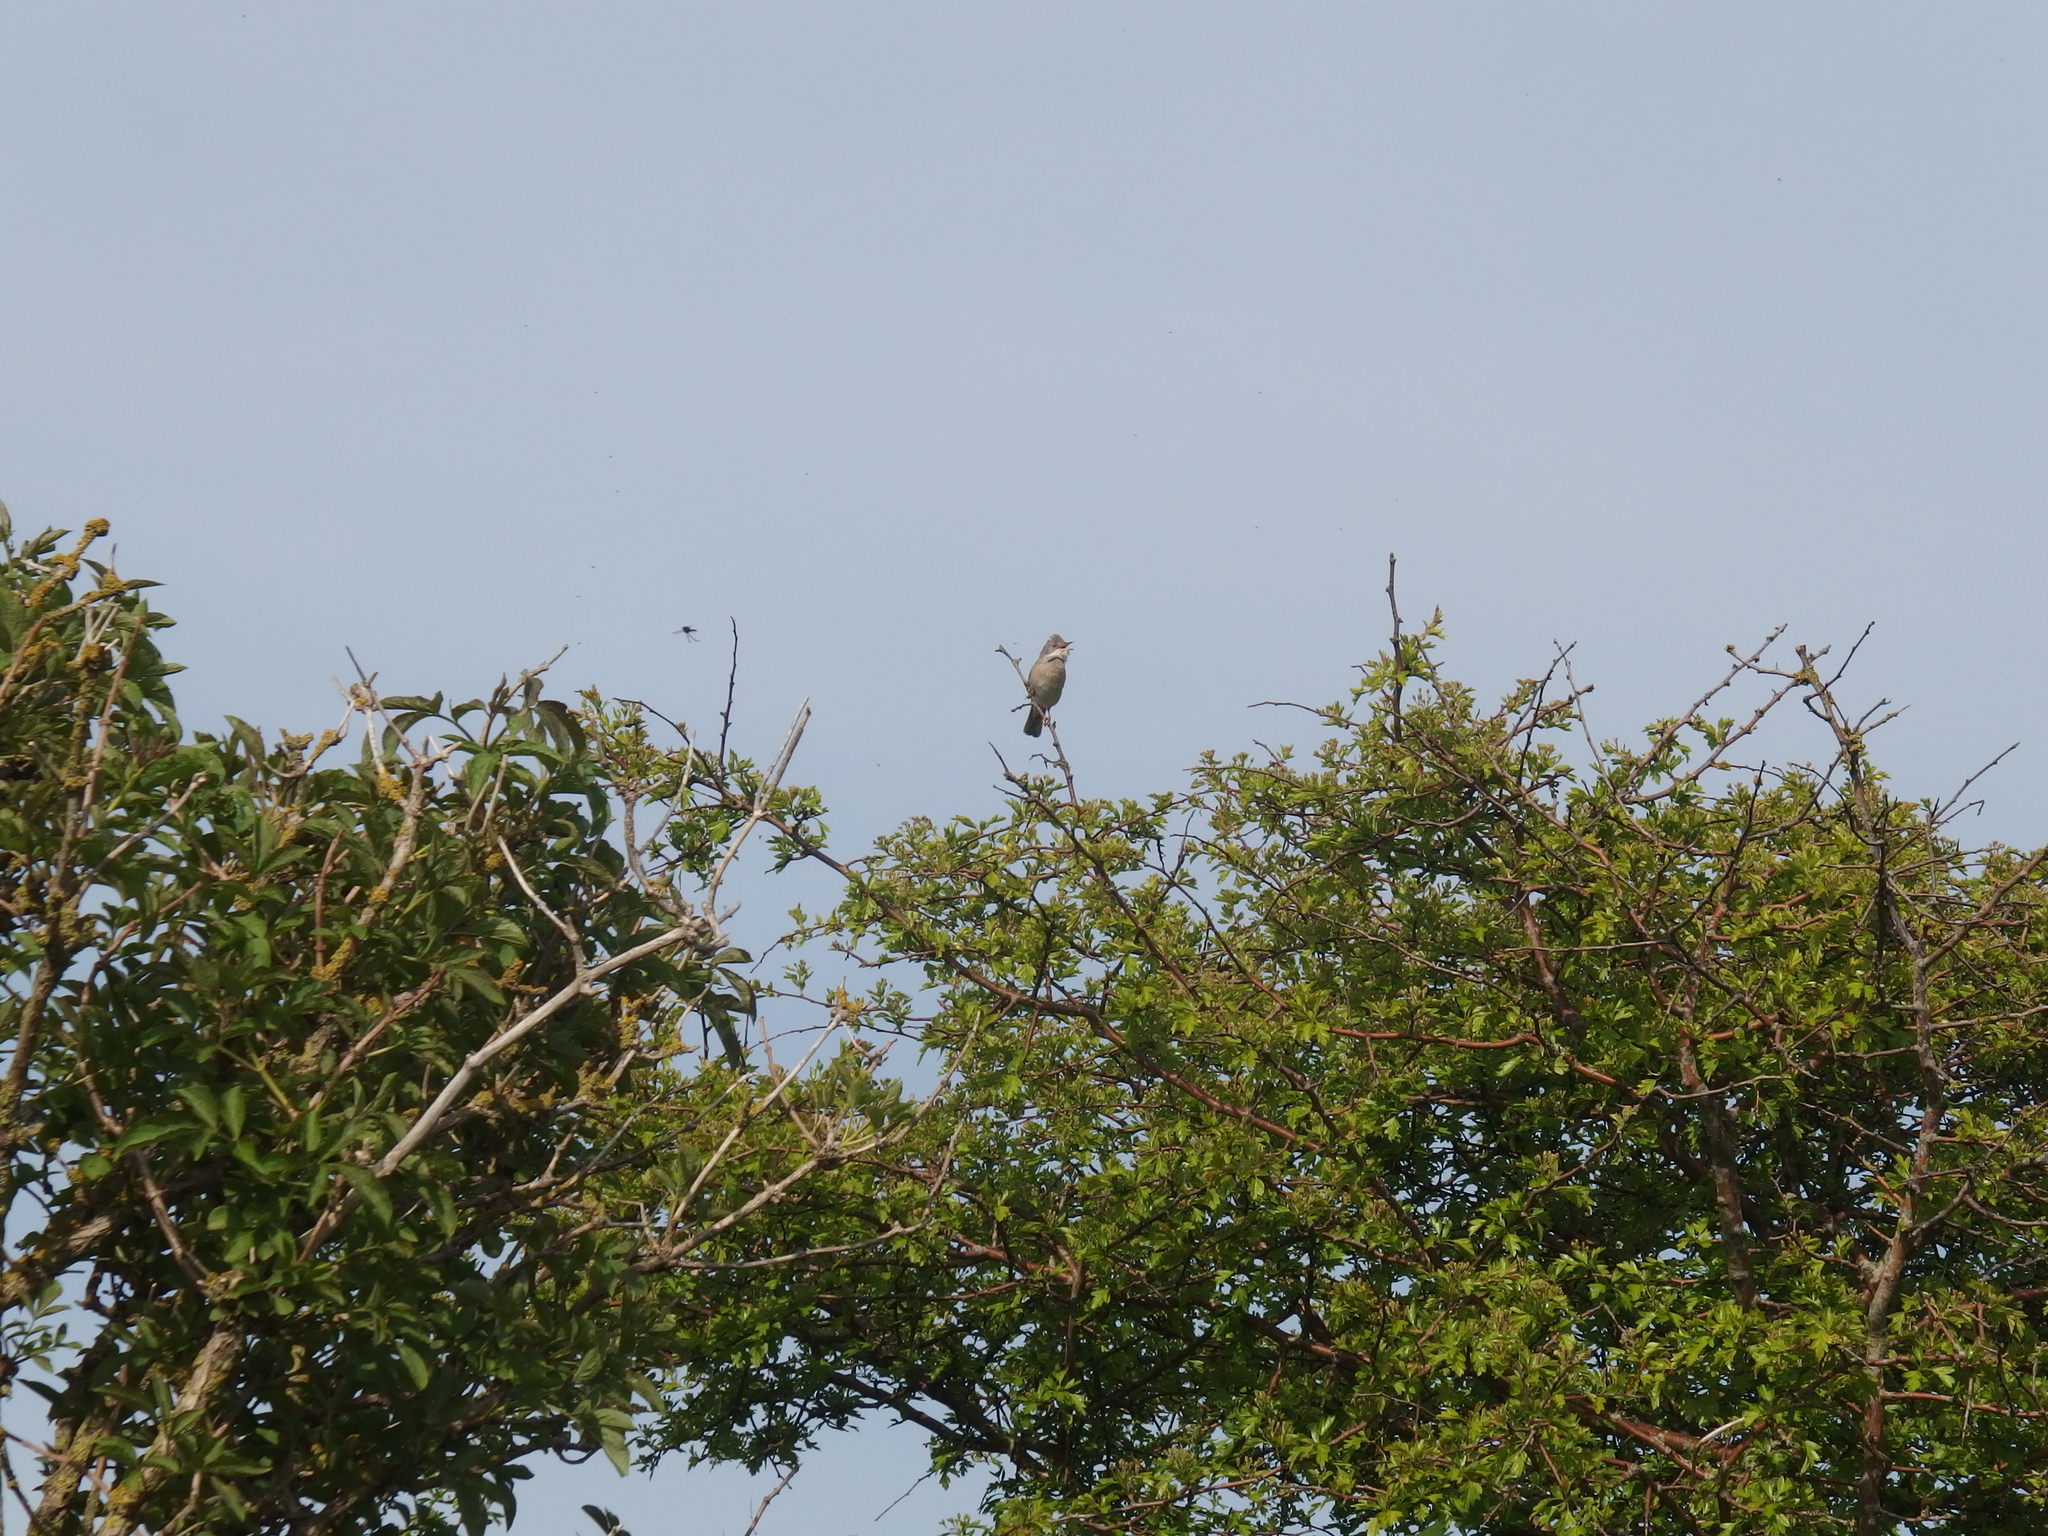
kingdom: Animalia
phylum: Chordata
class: Aves
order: Passeriformes
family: Sylviidae
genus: Sylvia
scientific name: Sylvia communis
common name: Common whitethroat
